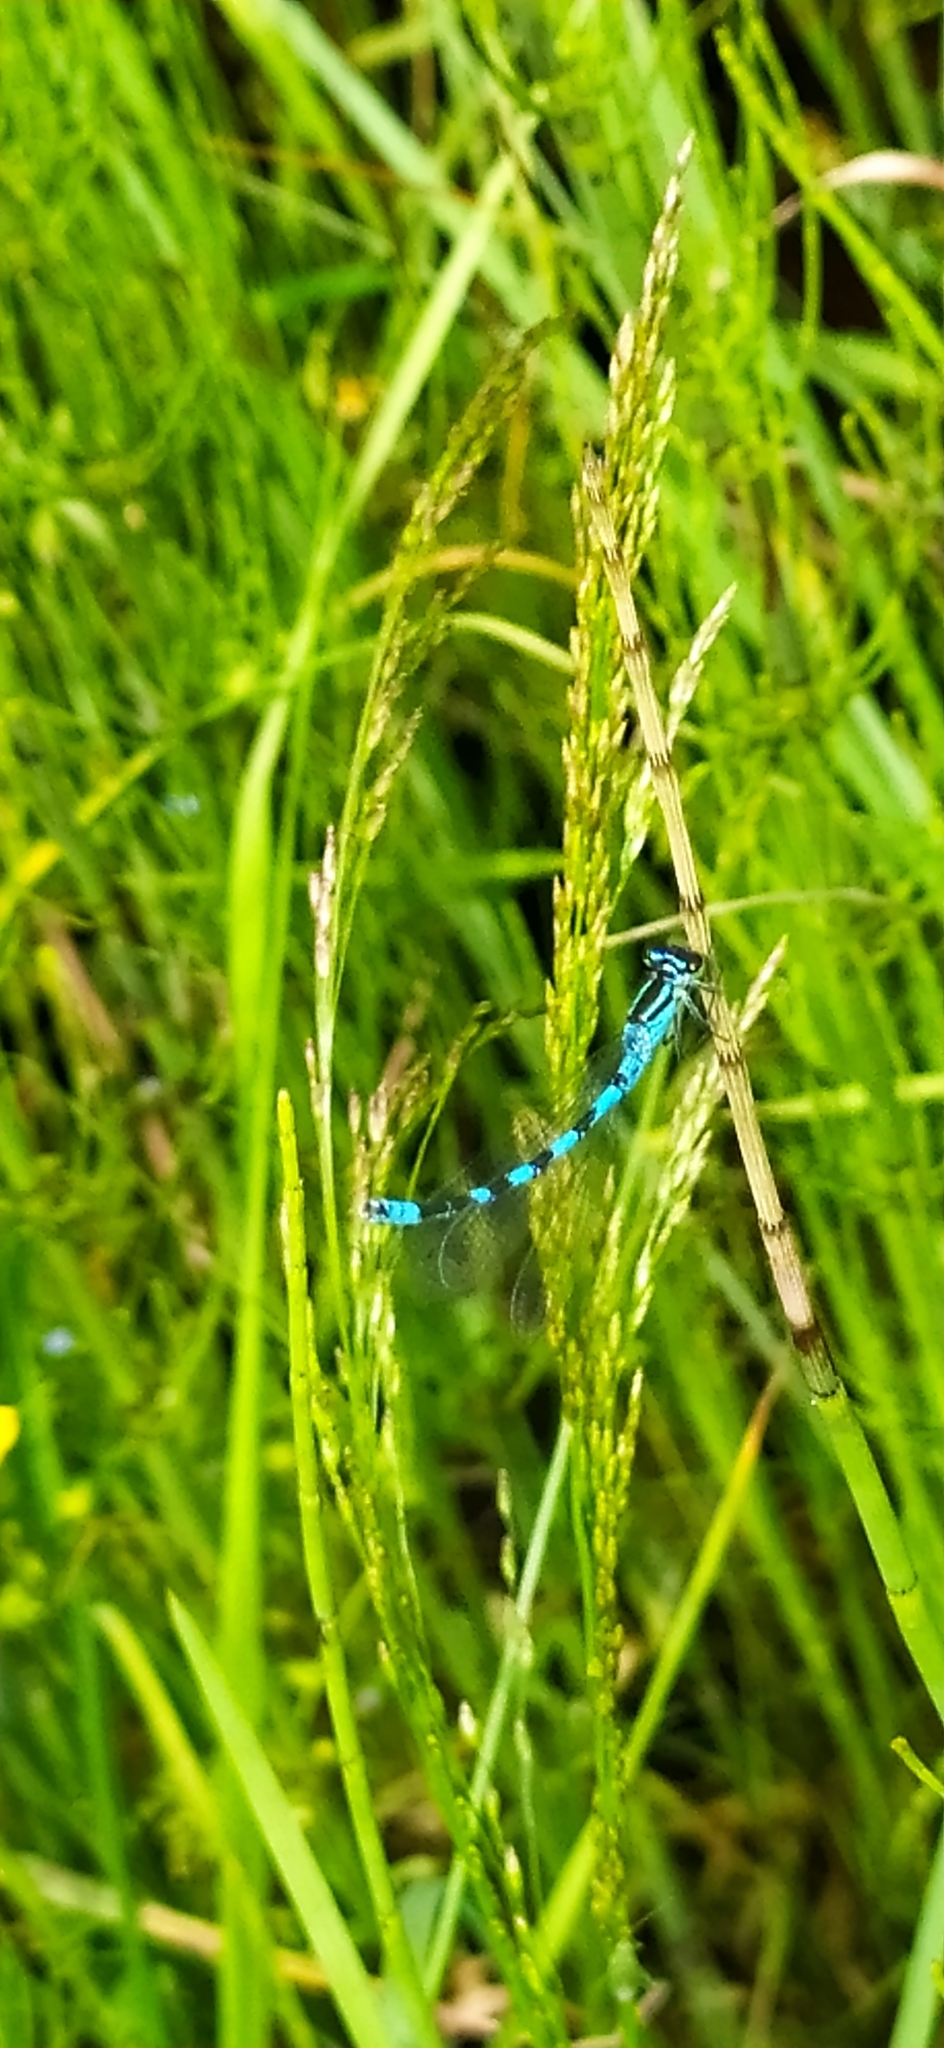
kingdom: Animalia
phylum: Arthropoda
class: Insecta
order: Odonata
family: Coenagrionidae
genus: Coenagrion
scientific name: Coenagrion hastulatum
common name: Spearhead bluet
